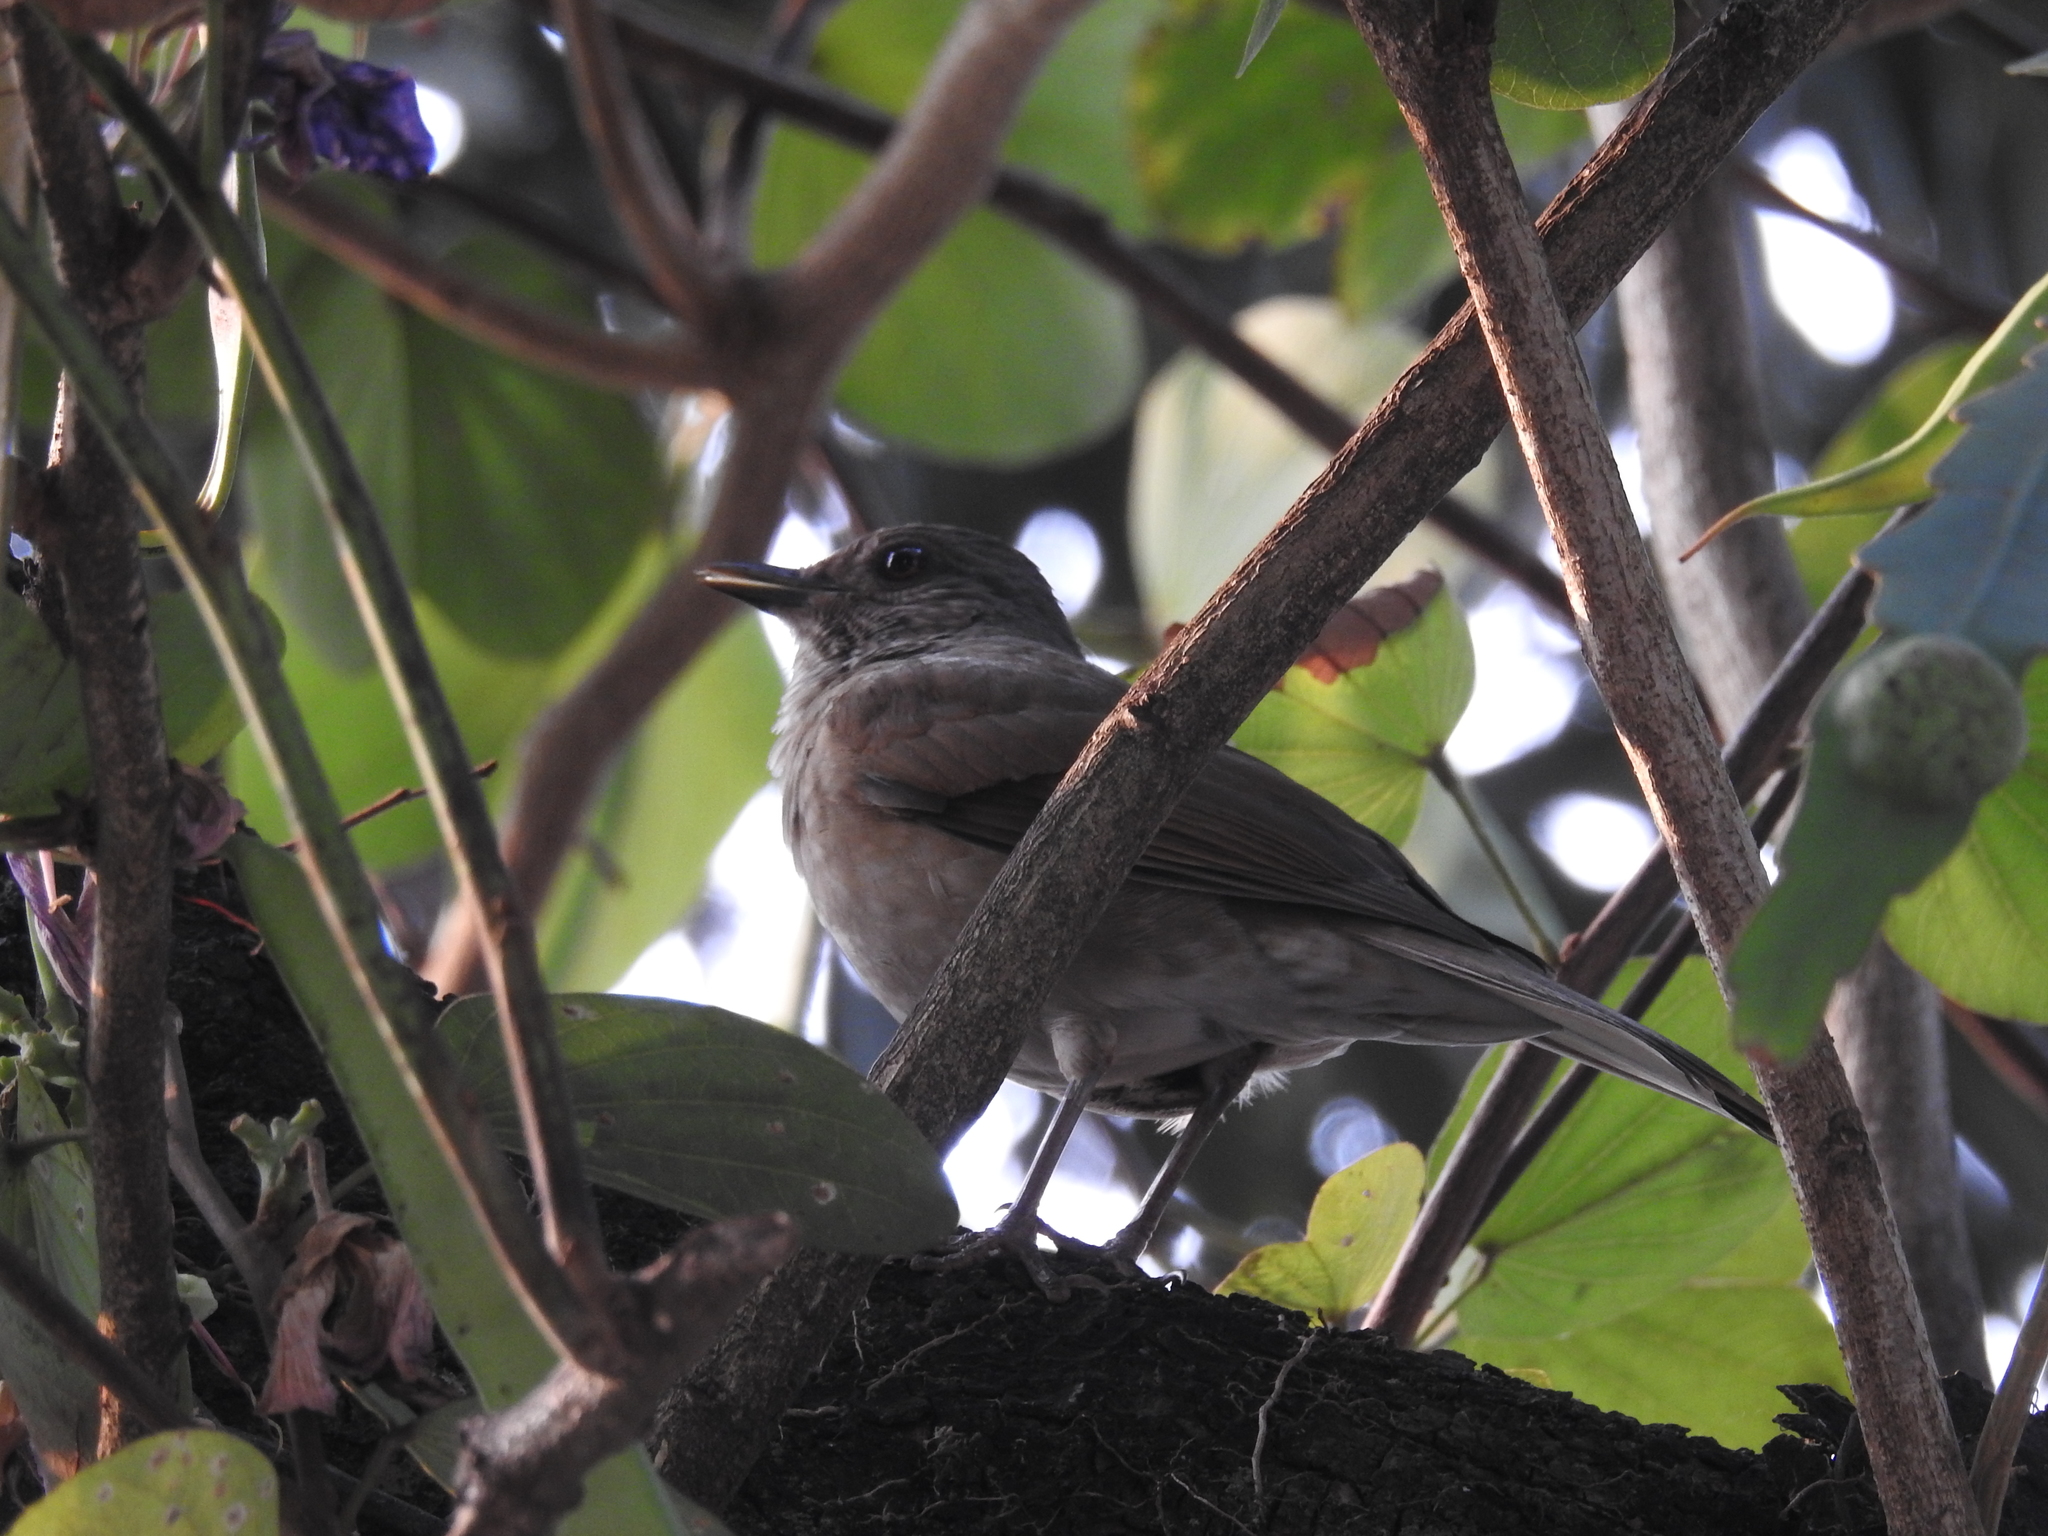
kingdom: Animalia
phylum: Chordata
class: Aves
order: Passeriformes
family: Turdidae
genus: Turdus
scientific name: Turdus leucomelas
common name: Pale-breasted thrush
